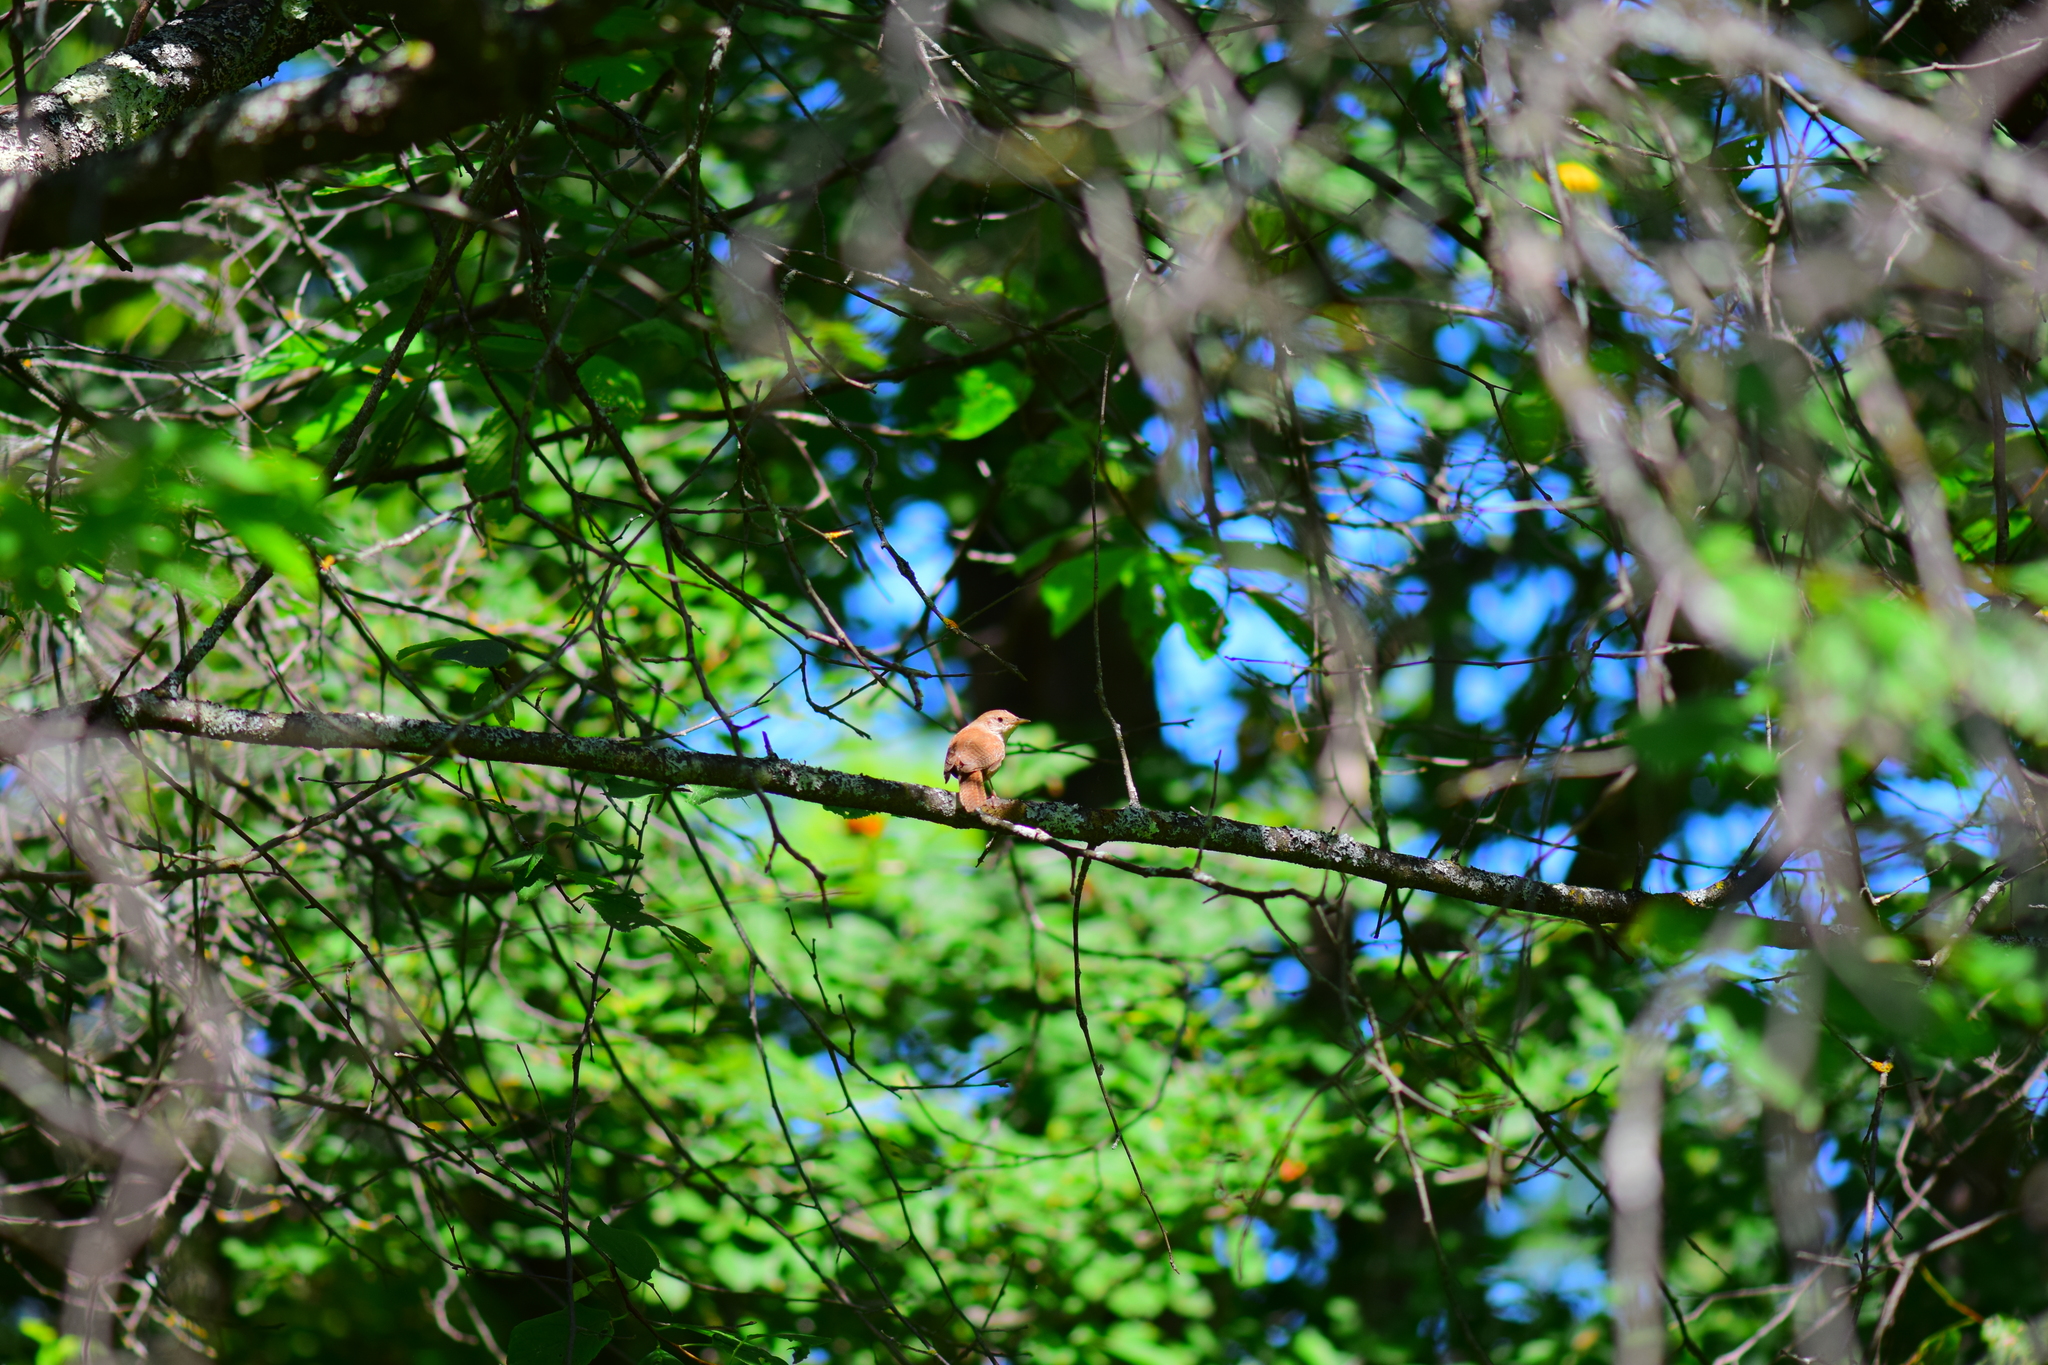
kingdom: Animalia
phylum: Chordata
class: Aves
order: Passeriformes
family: Troglodytidae
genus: Troglodytes
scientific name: Troglodytes aedon
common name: House wren
